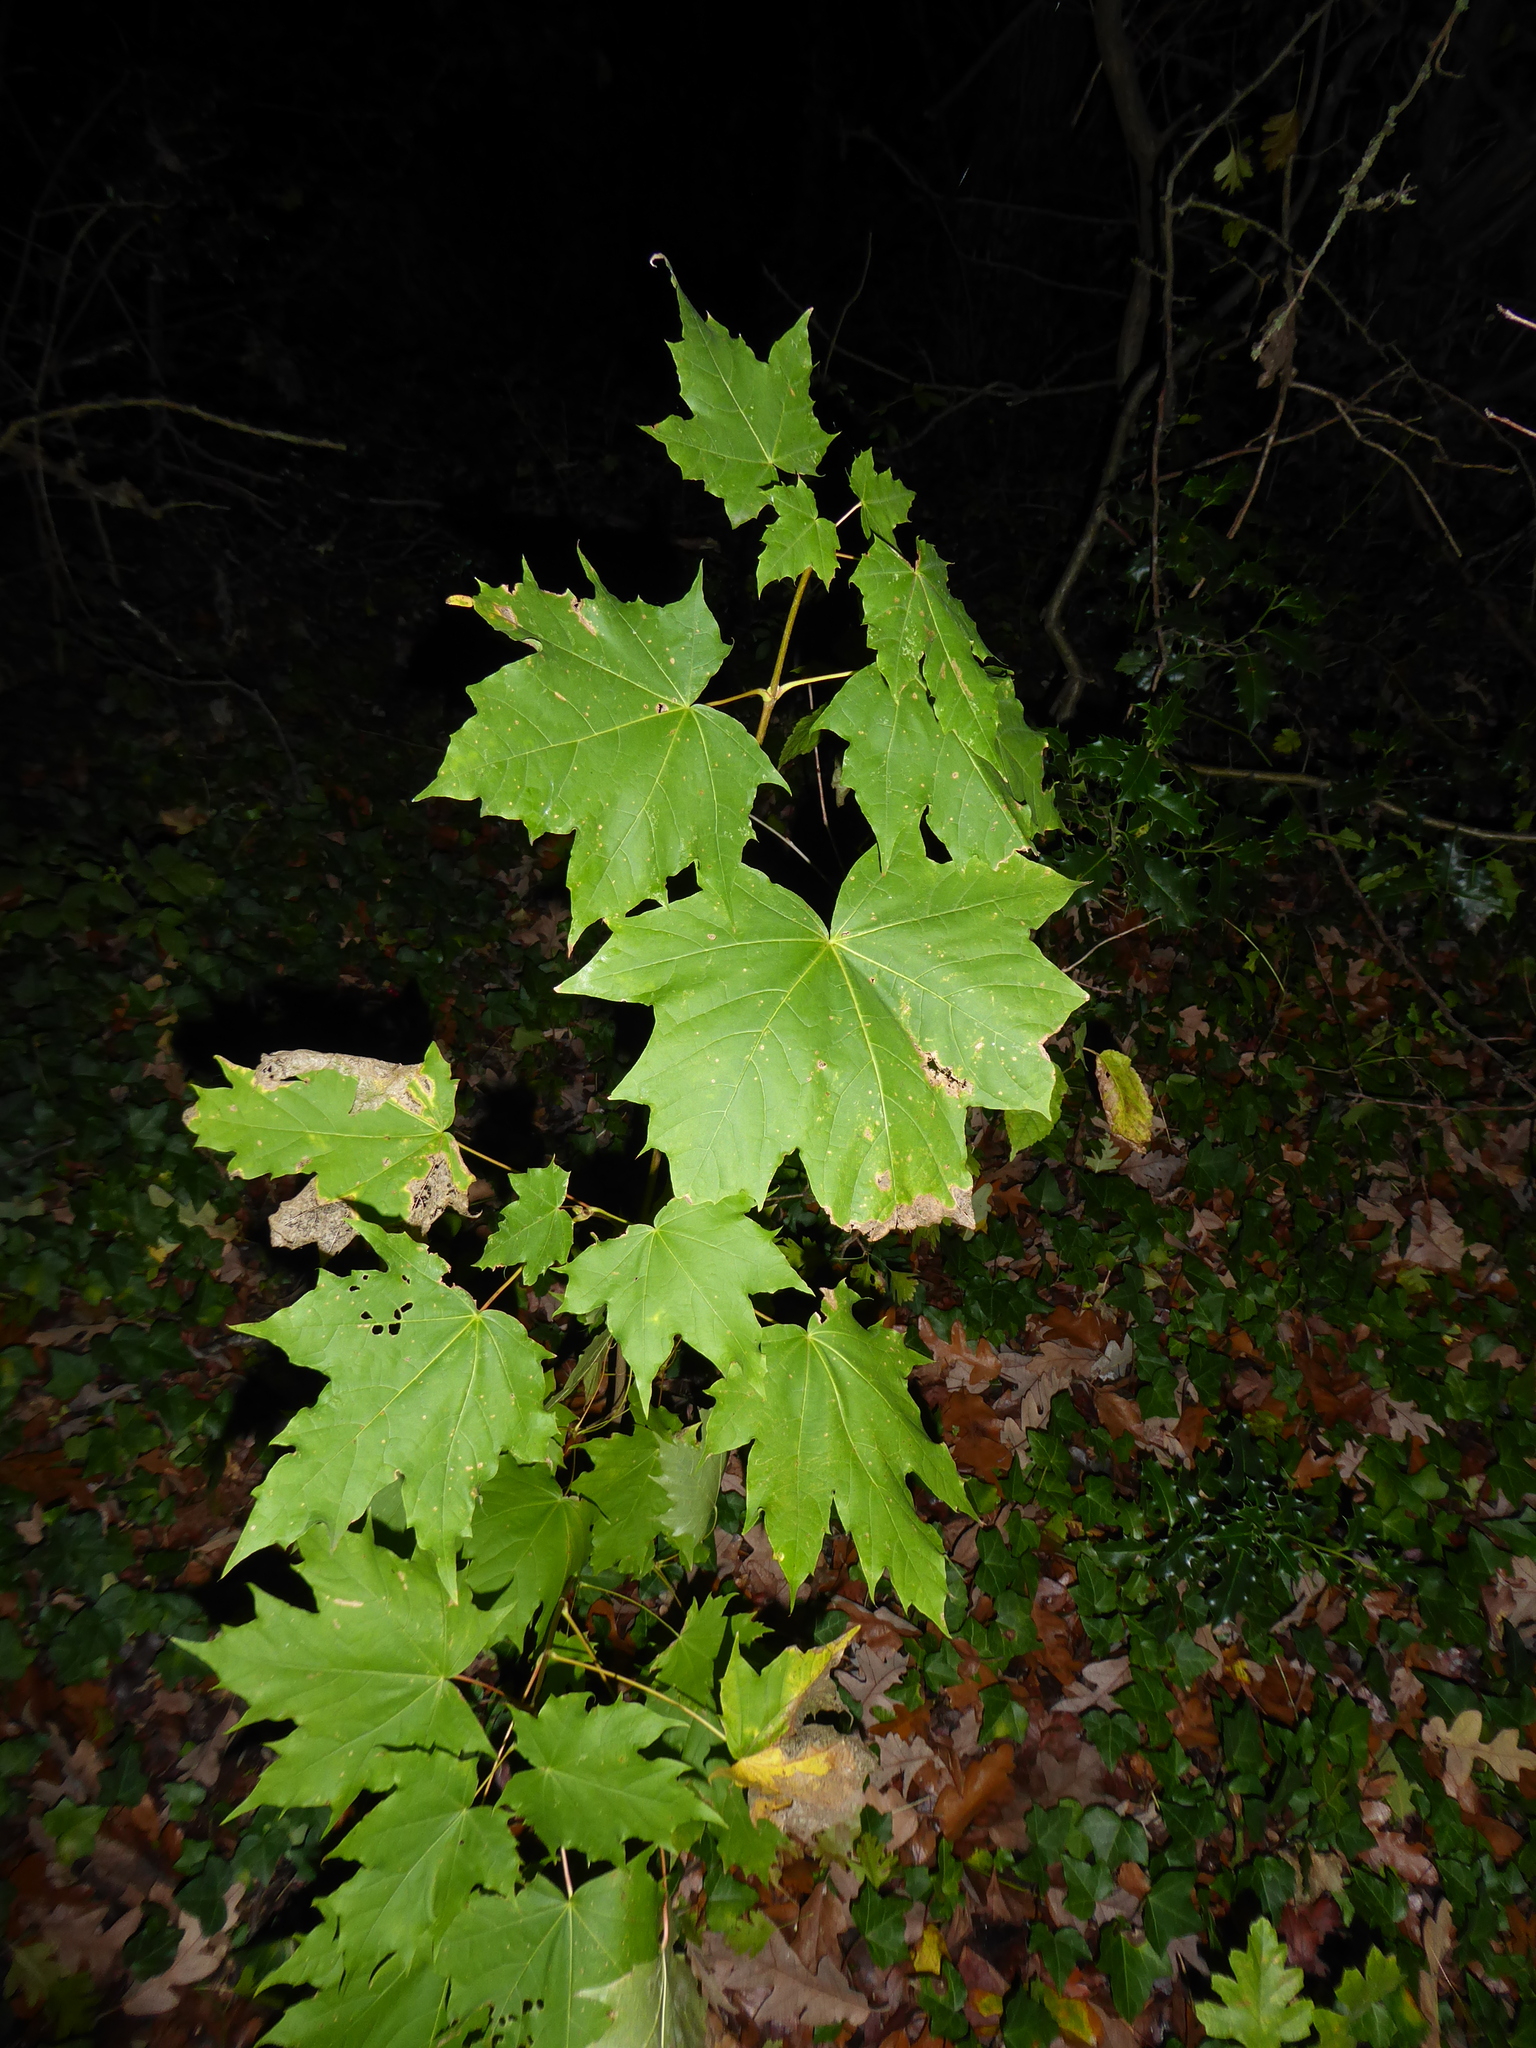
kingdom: Plantae
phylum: Tracheophyta
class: Magnoliopsida
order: Sapindales
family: Sapindaceae
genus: Acer
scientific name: Acer platanoides
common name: Norway maple
